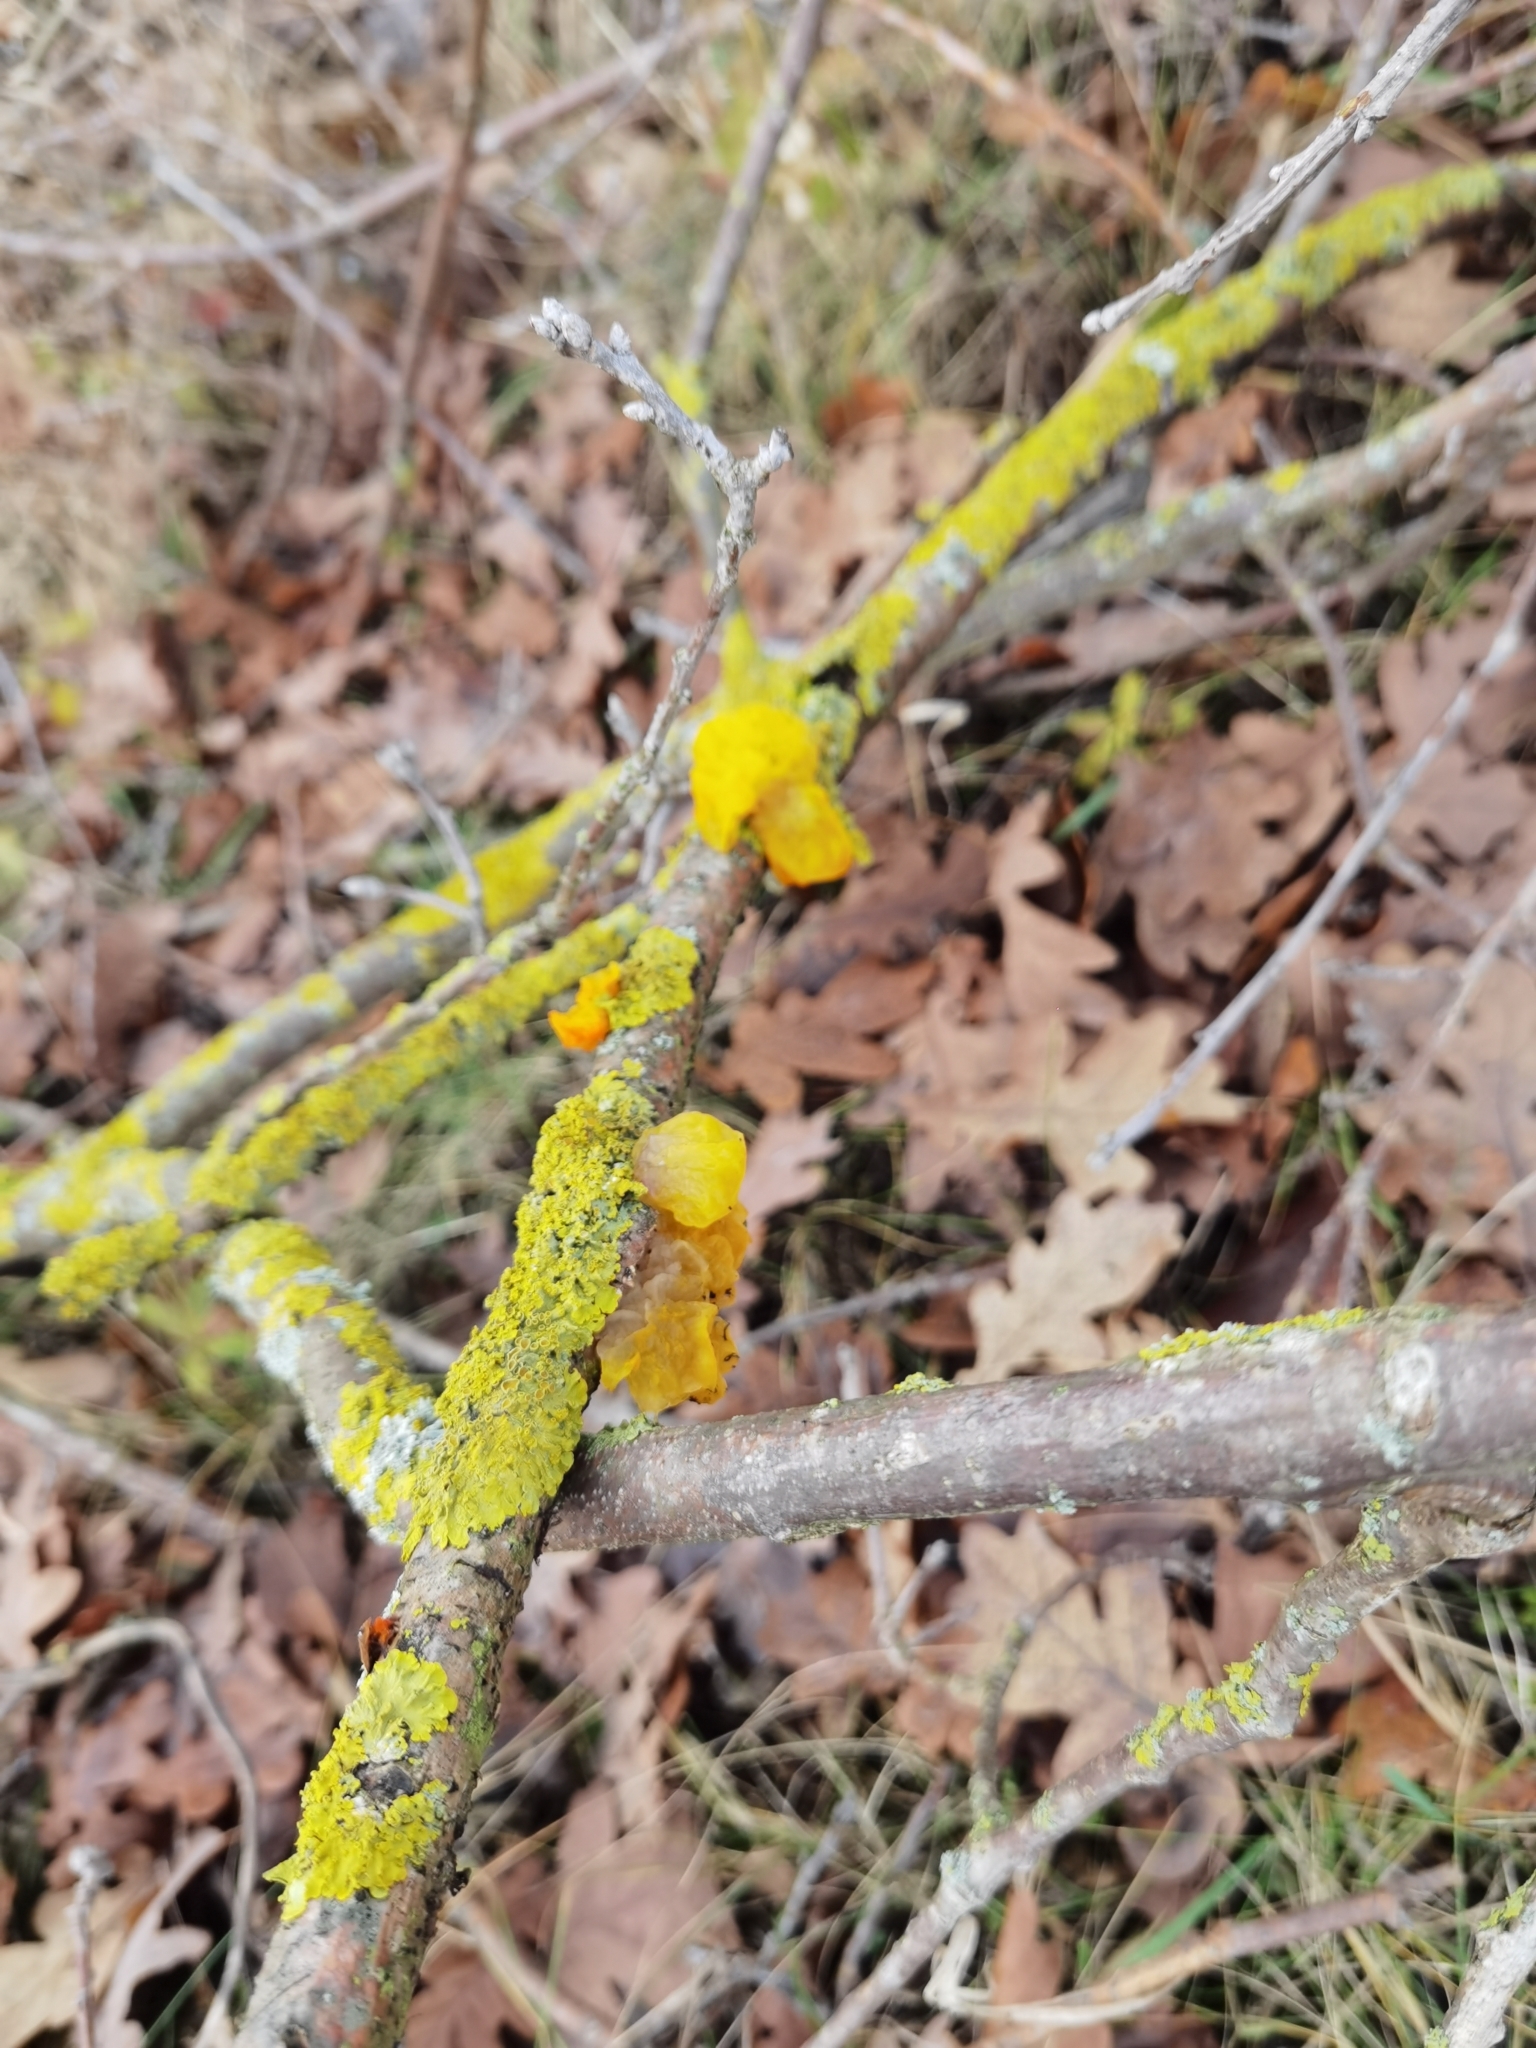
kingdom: Fungi
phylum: Basidiomycota
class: Tremellomycetes
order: Tremellales
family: Tremellaceae
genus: Tremella
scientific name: Tremella mesenterica
